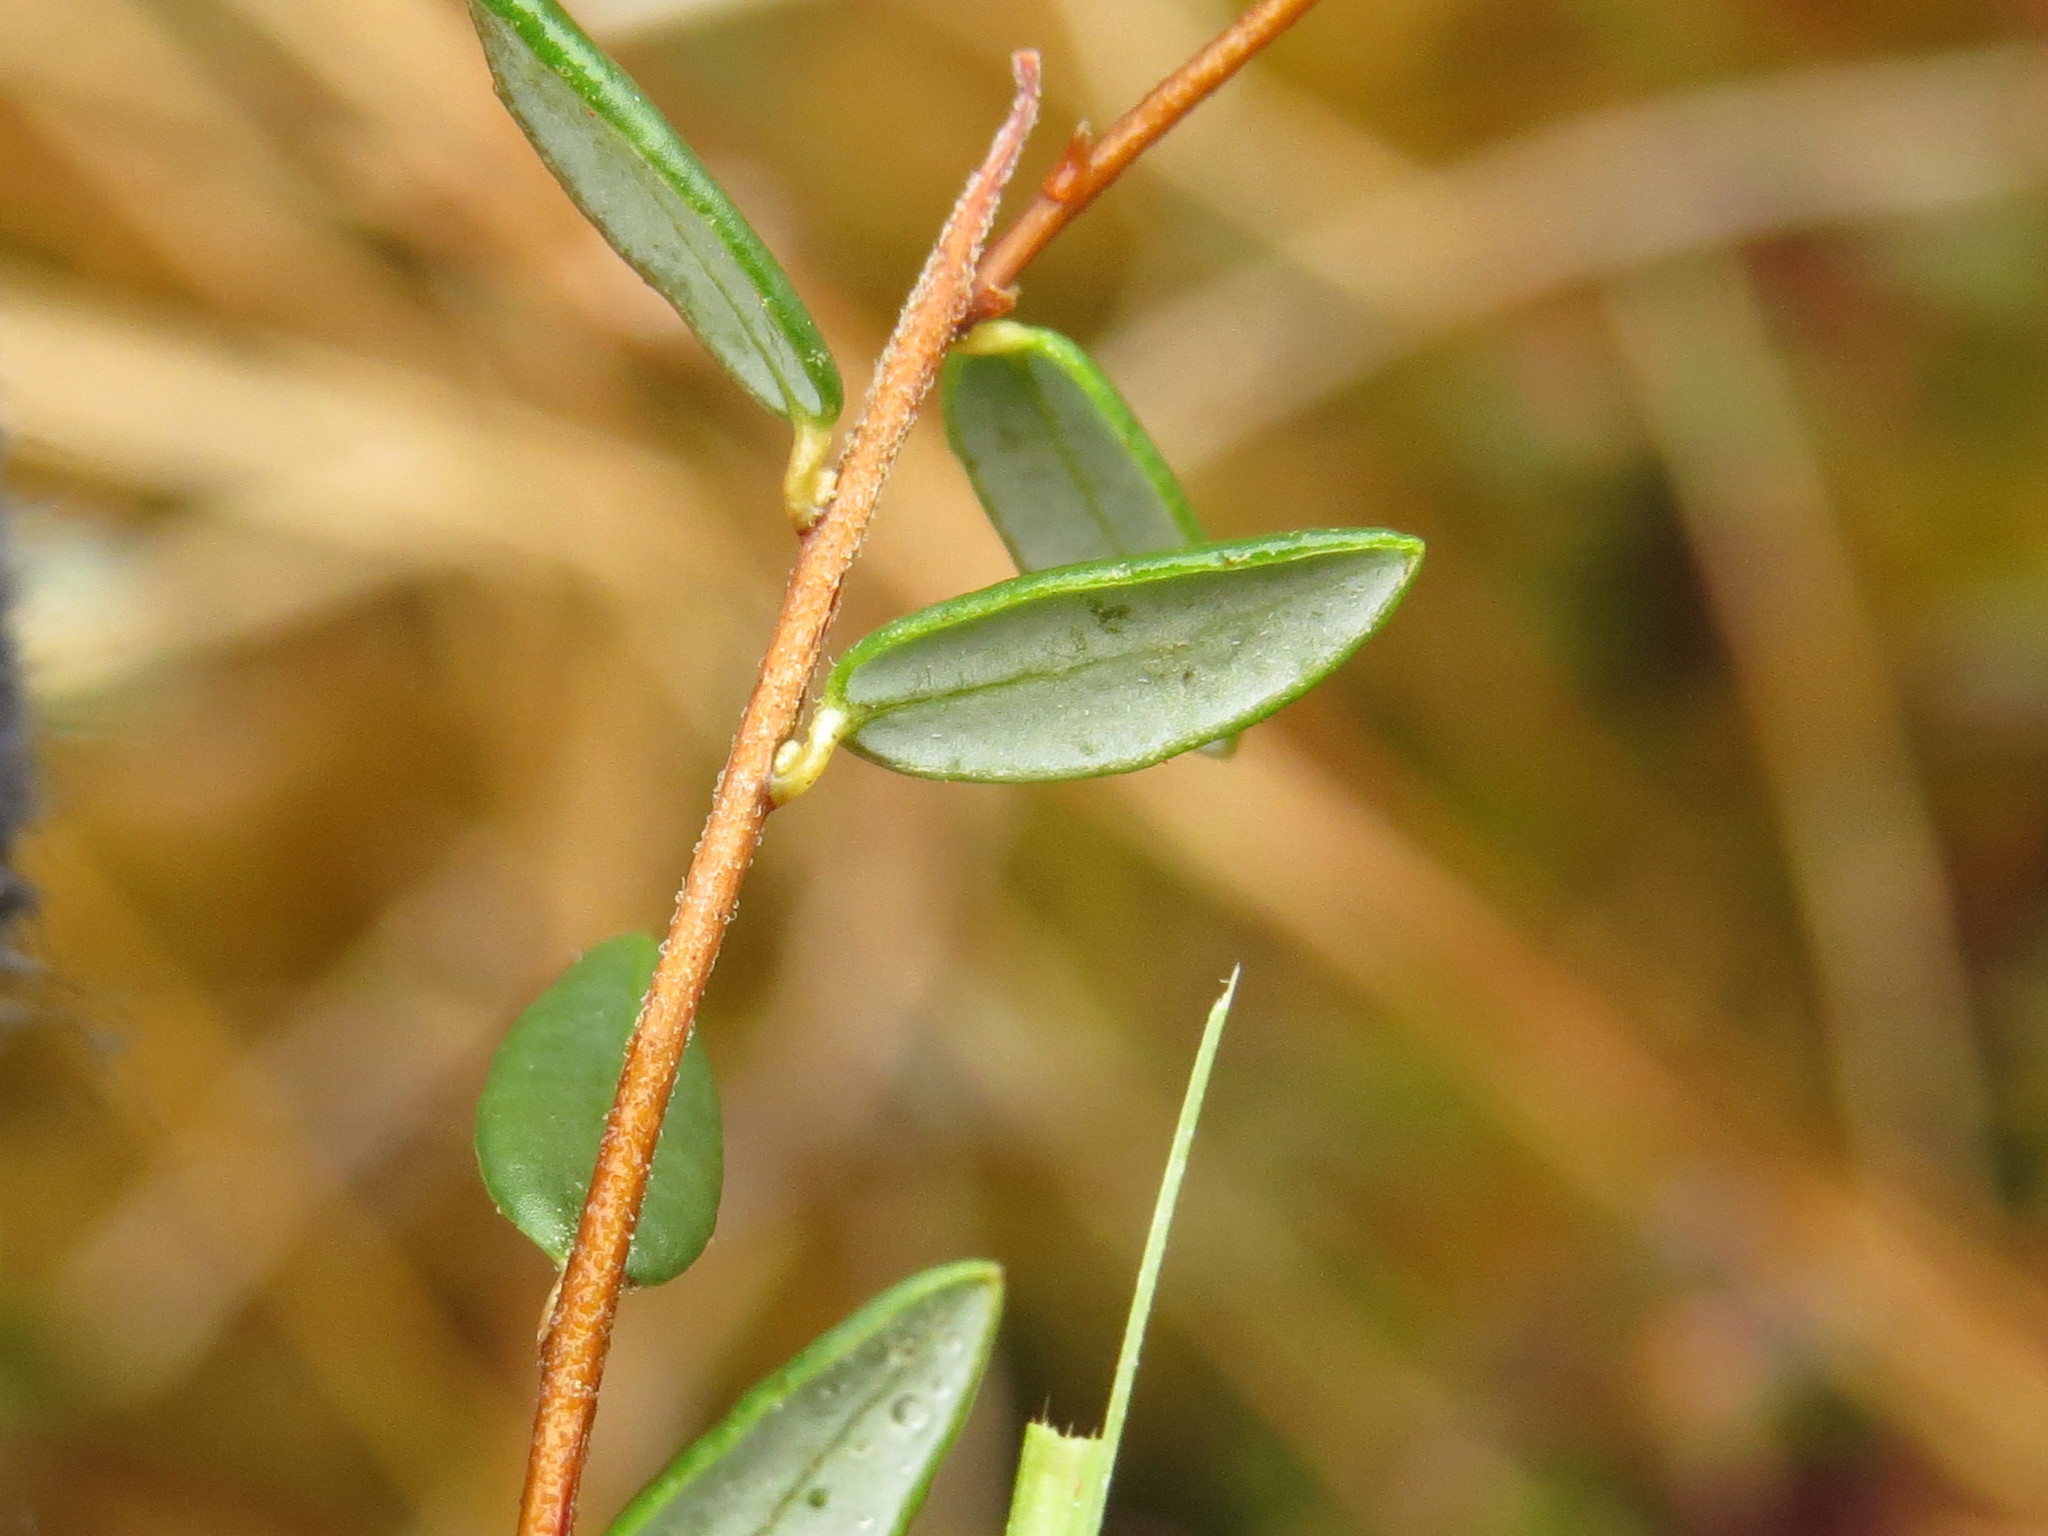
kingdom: Plantae
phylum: Tracheophyta
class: Magnoliopsida
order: Ericales
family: Ericaceae
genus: Vaccinium
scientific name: Vaccinium oxycoccos
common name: Cranberry
